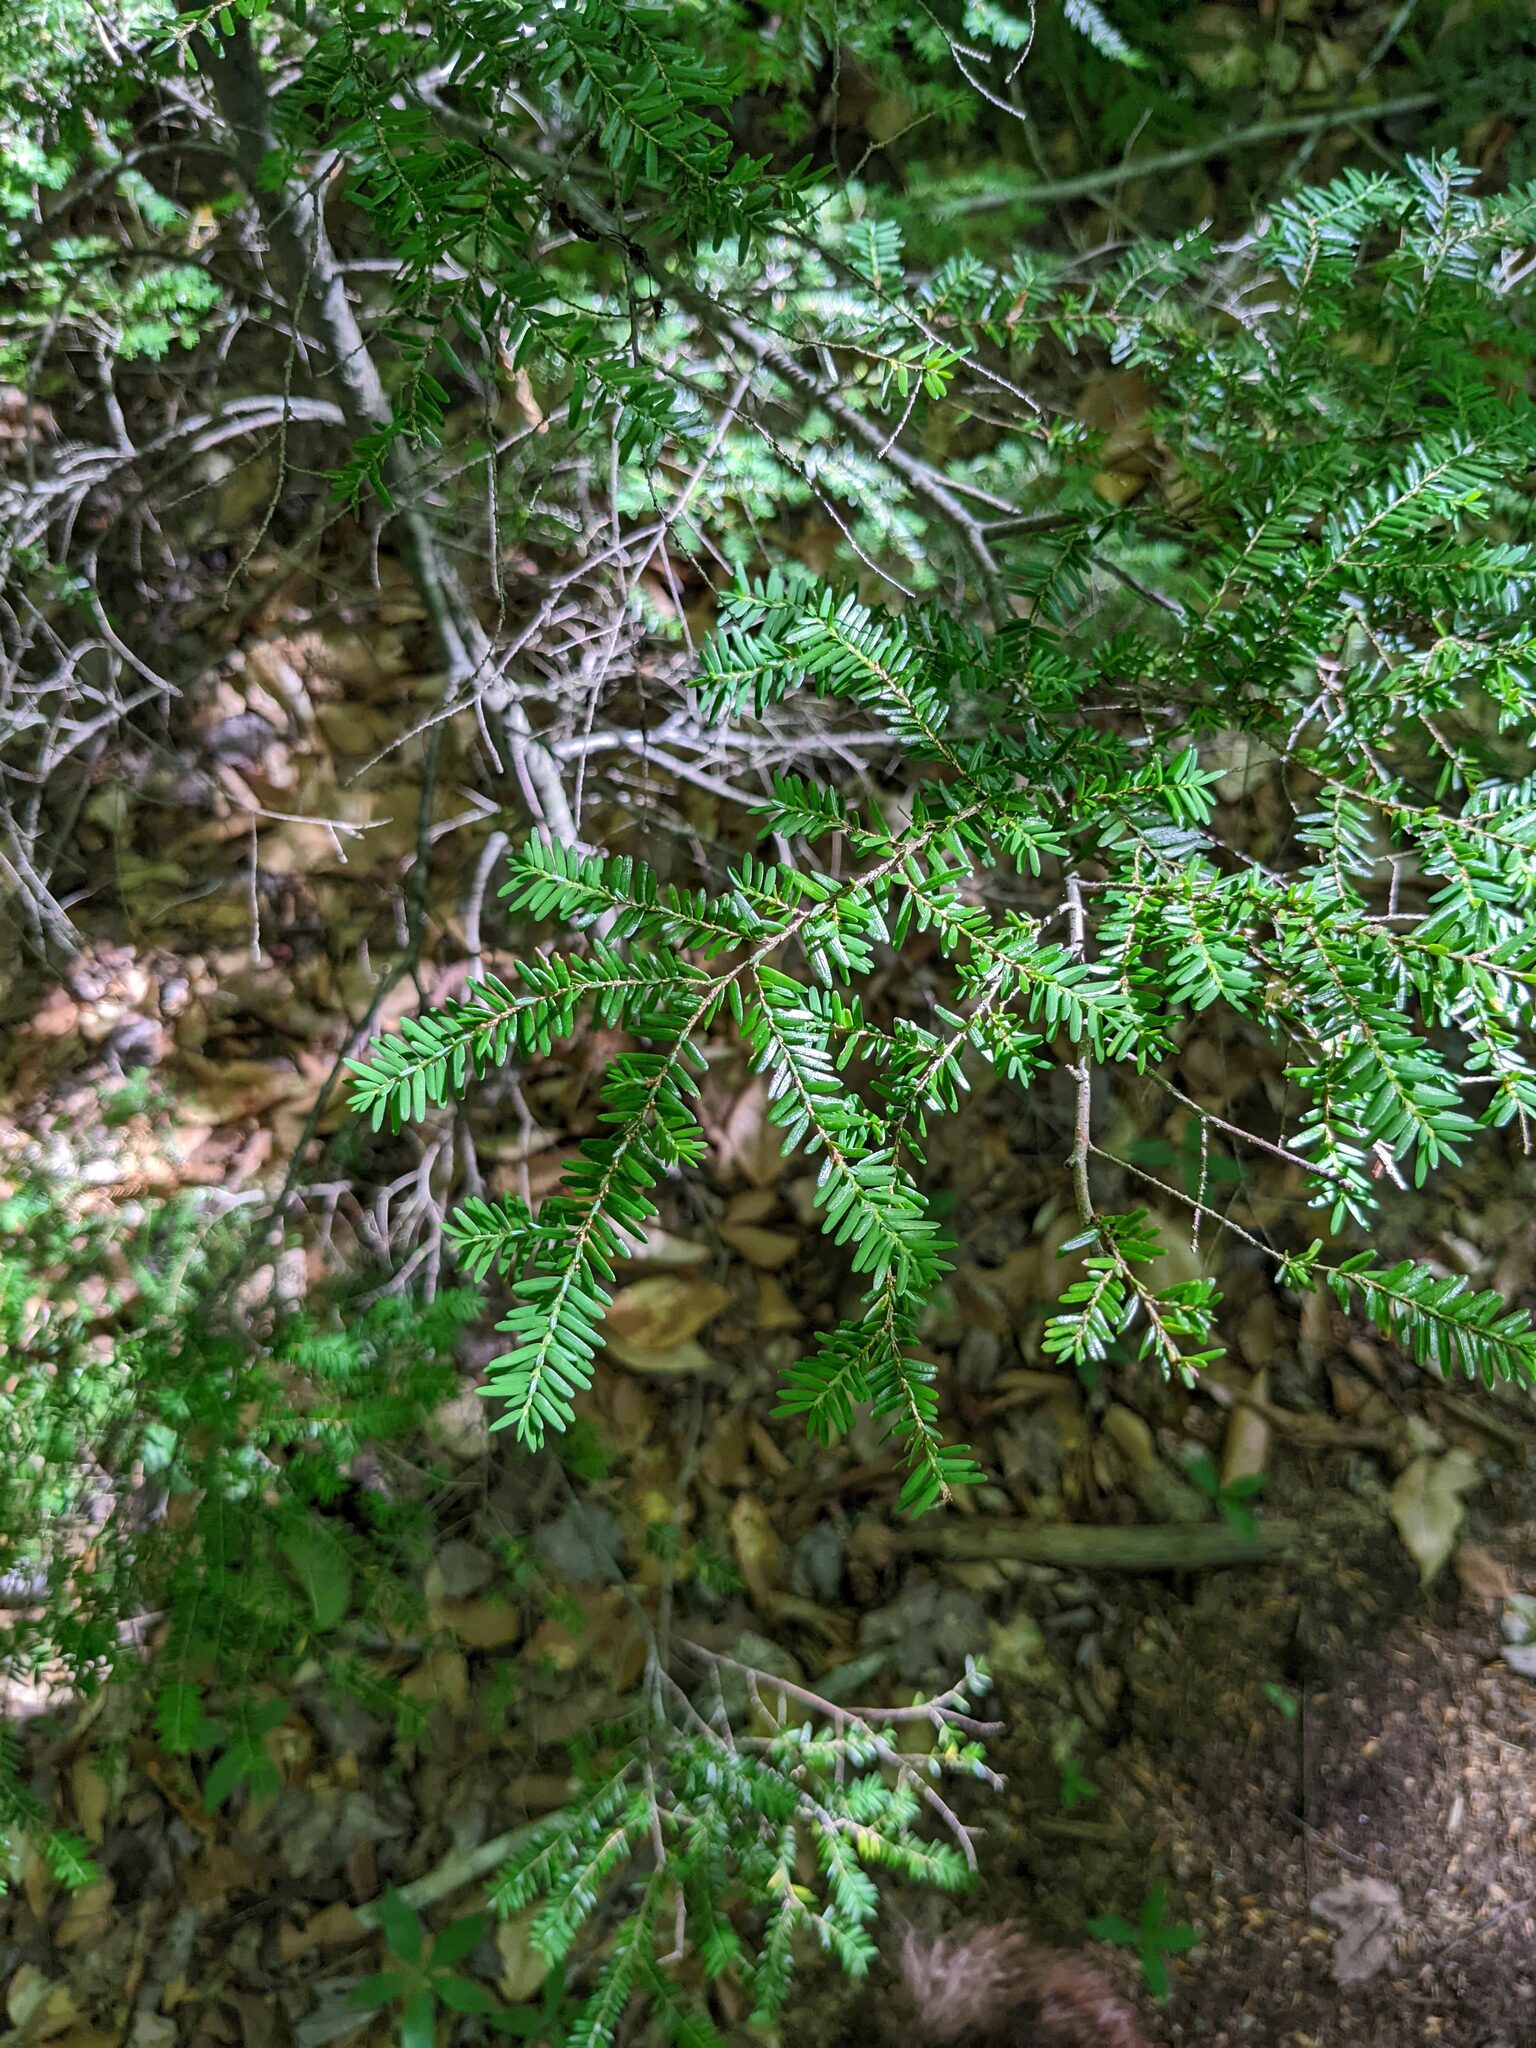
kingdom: Plantae
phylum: Tracheophyta
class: Pinopsida
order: Pinales
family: Pinaceae
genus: Tsuga
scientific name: Tsuga canadensis
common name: Eastern hemlock
